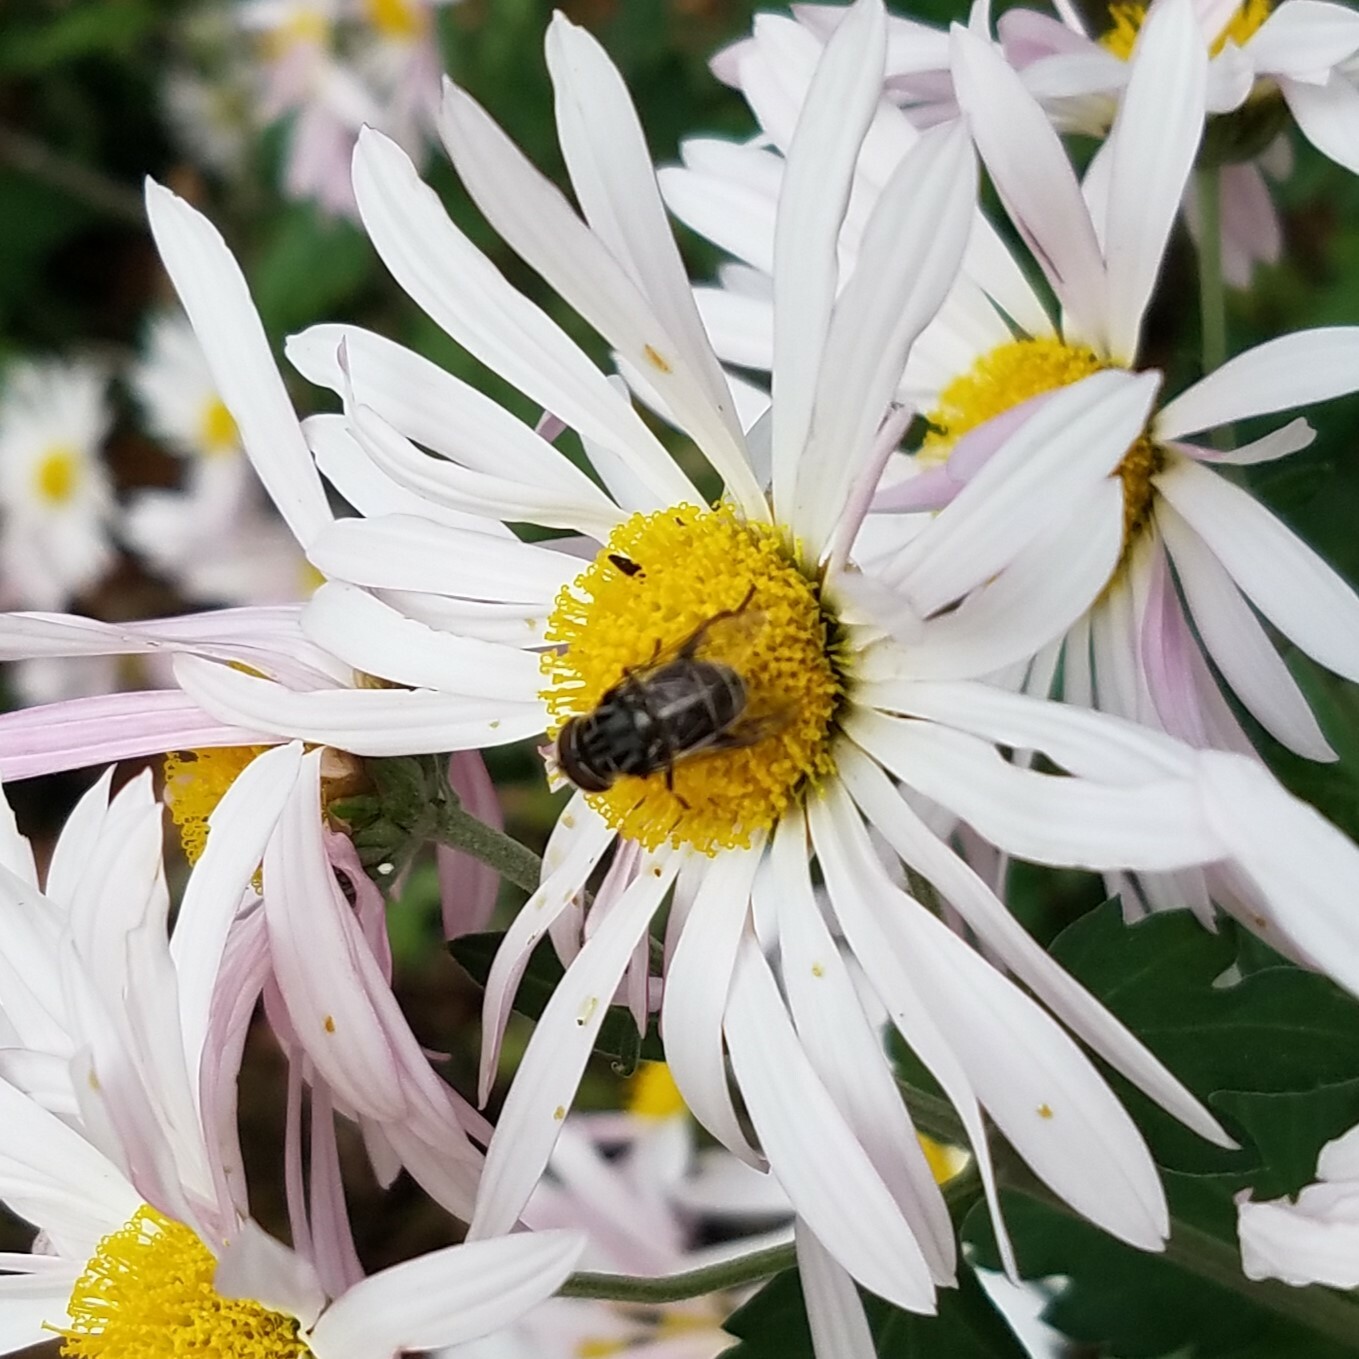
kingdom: Animalia
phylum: Arthropoda
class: Insecta
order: Diptera
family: Syrphidae
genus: Palpada
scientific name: Palpada furcata
